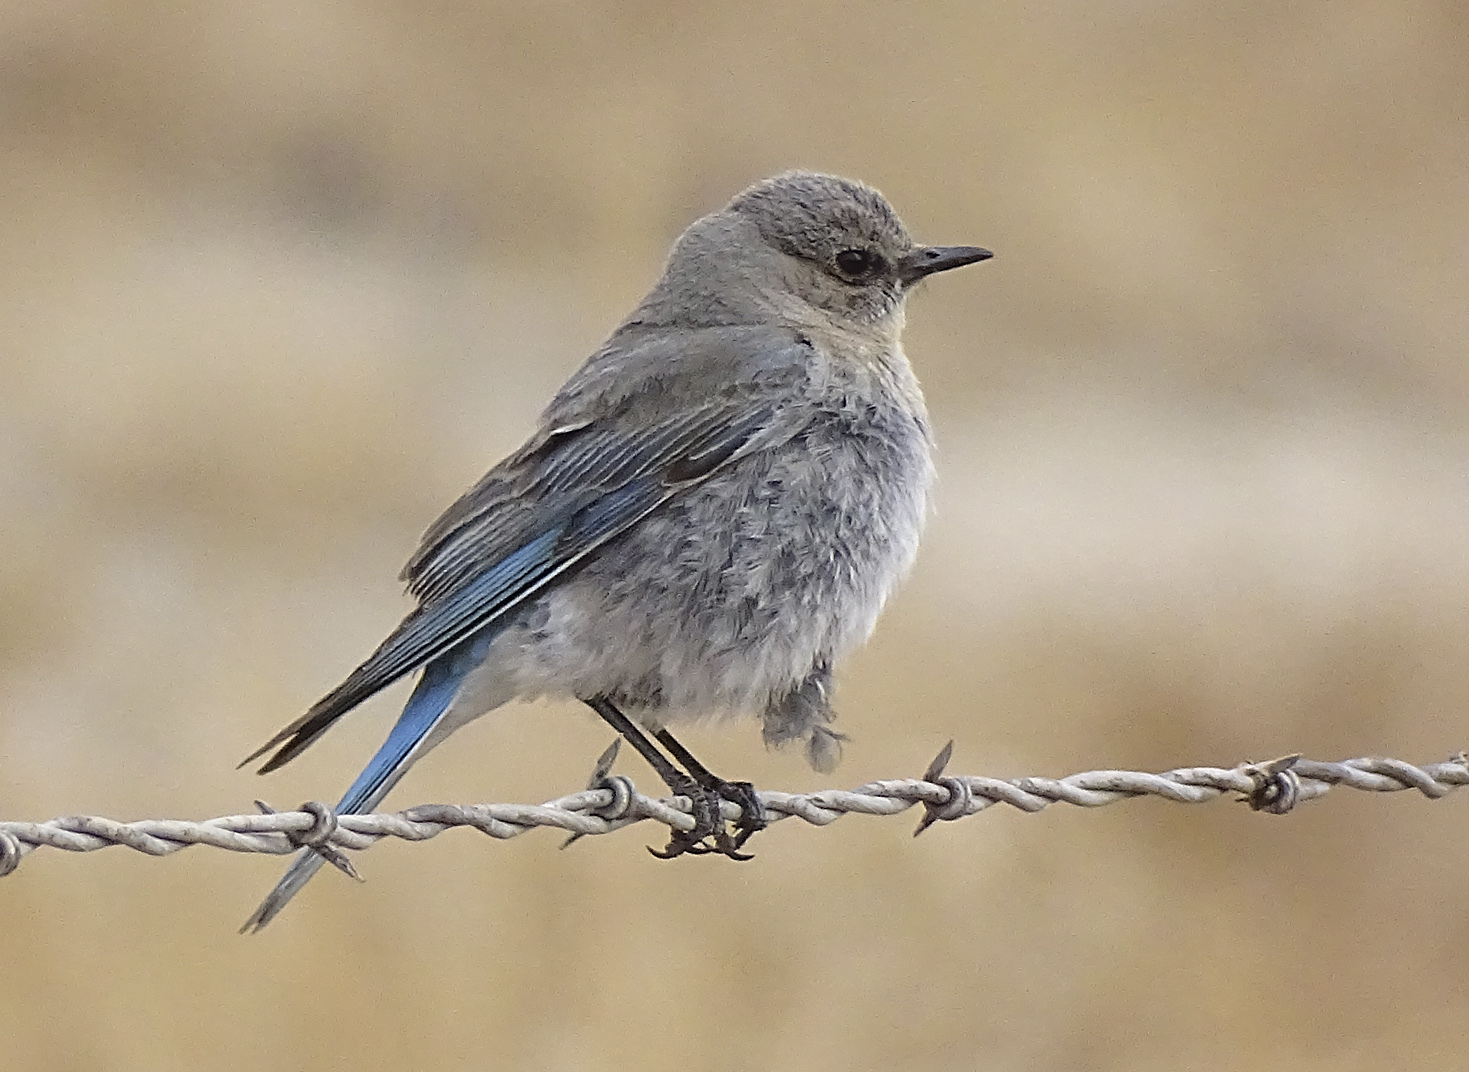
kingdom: Animalia
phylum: Chordata
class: Aves
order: Passeriformes
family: Turdidae
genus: Sialia
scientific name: Sialia currucoides
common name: Mountain bluebird
